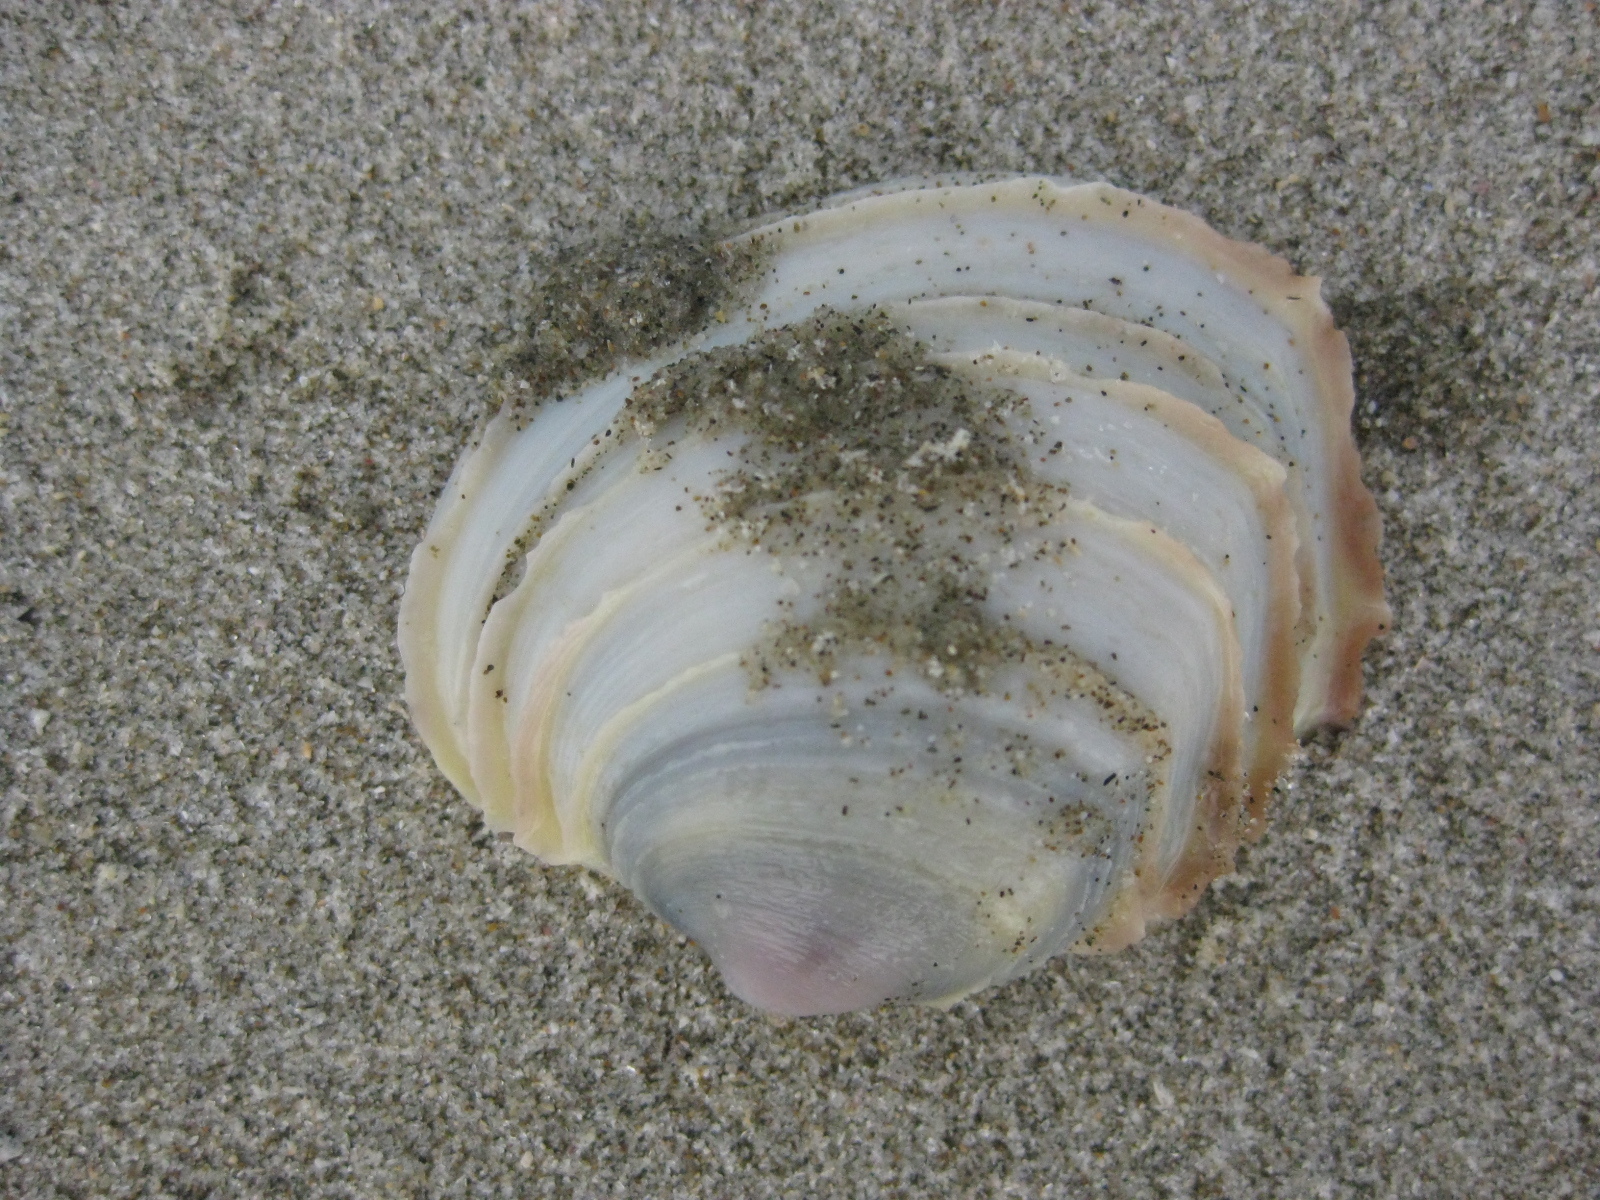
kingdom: Animalia
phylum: Mollusca
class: Bivalvia
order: Venerida
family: Veneridae
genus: Bassina
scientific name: Bassina yatei
